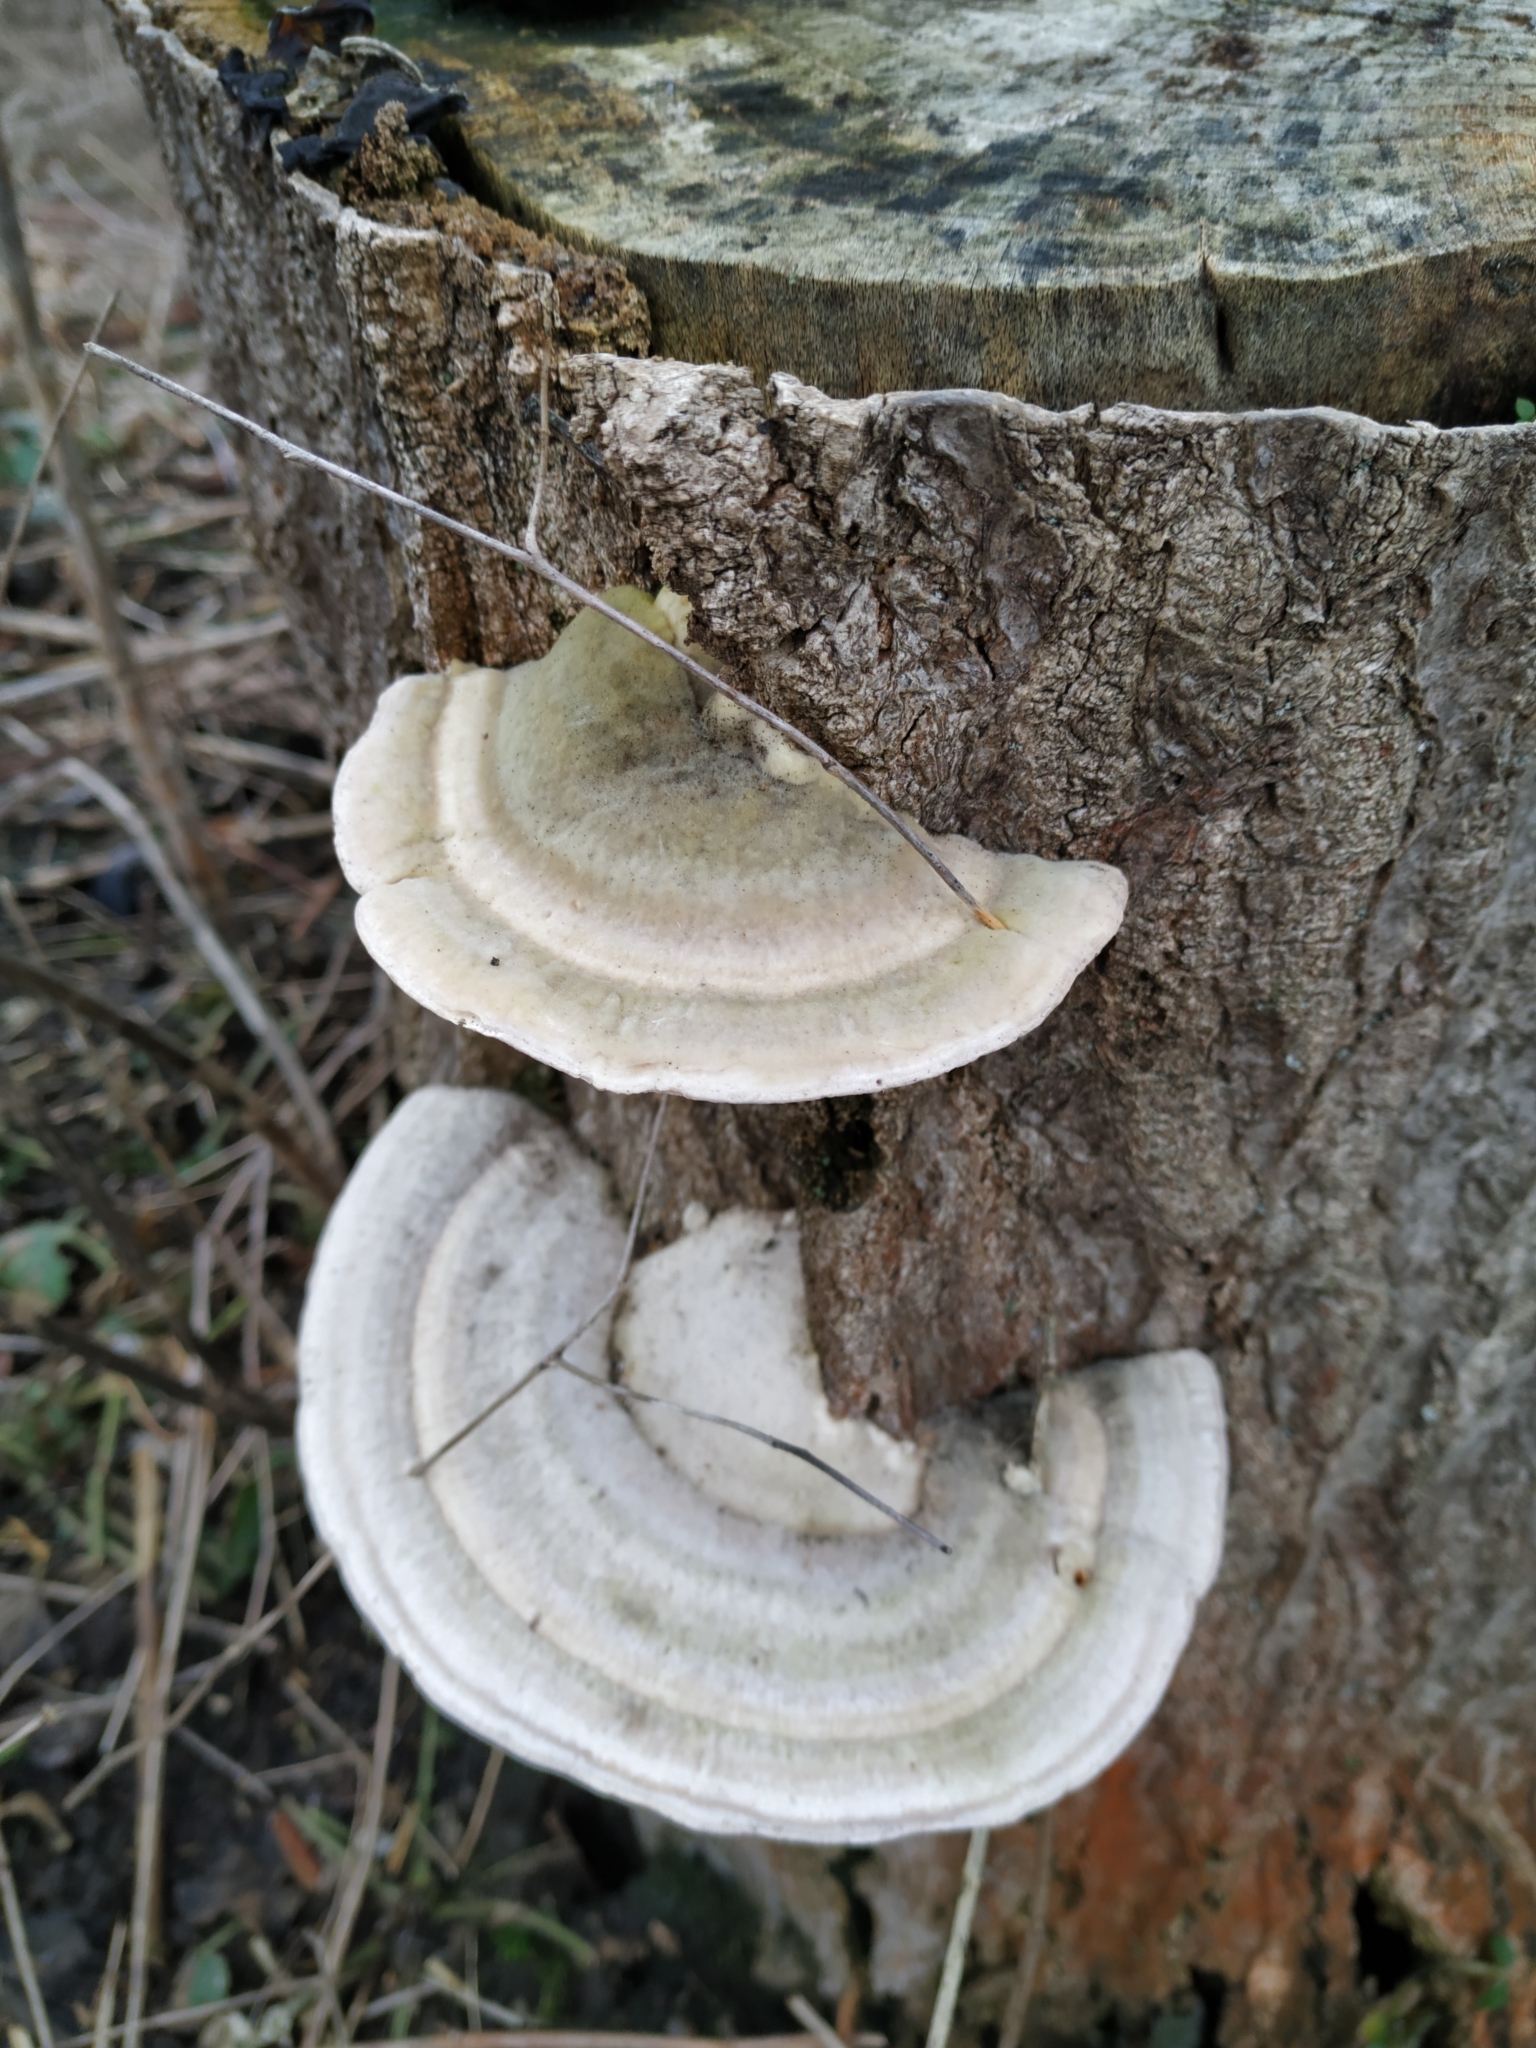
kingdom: Fungi
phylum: Basidiomycota
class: Agaricomycetes
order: Polyporales
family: Polyporaceae
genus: Trametes
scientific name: Trametes gibbosa
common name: Lumpy bracket
